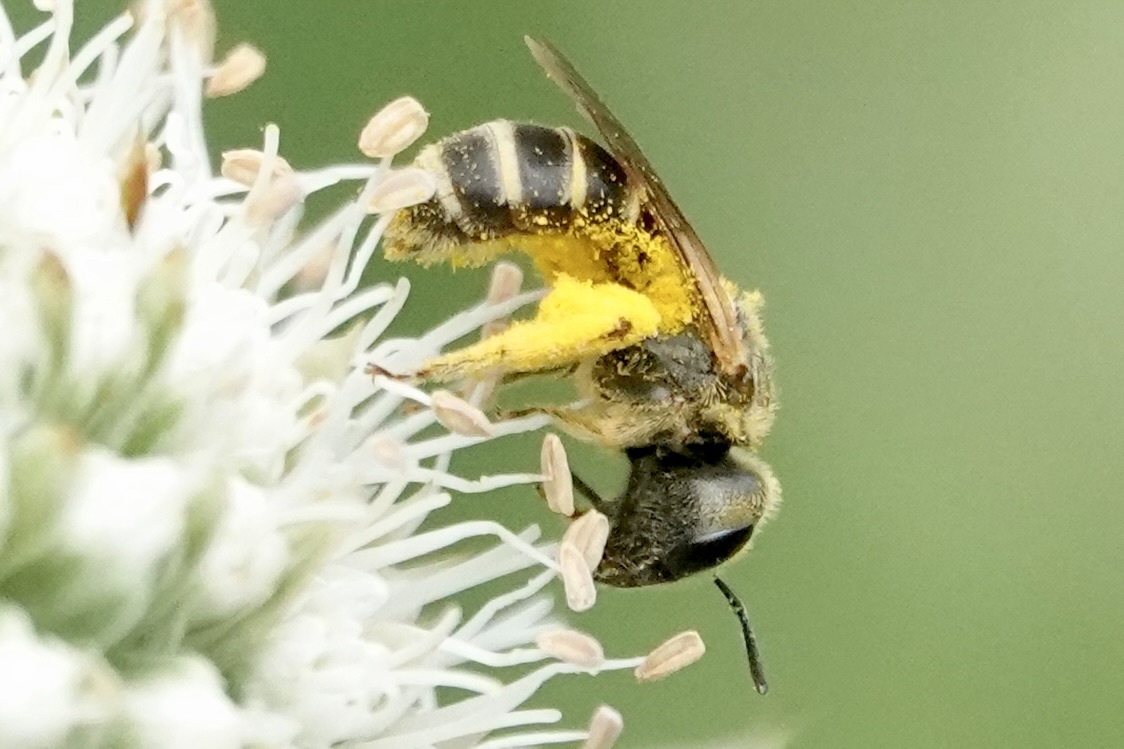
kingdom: Animalia
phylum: Arthropoda
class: Insecta
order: Hymenoptera
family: Halictidae
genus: Halictus
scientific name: Halictus ligatus
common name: Ligated furrow bee
